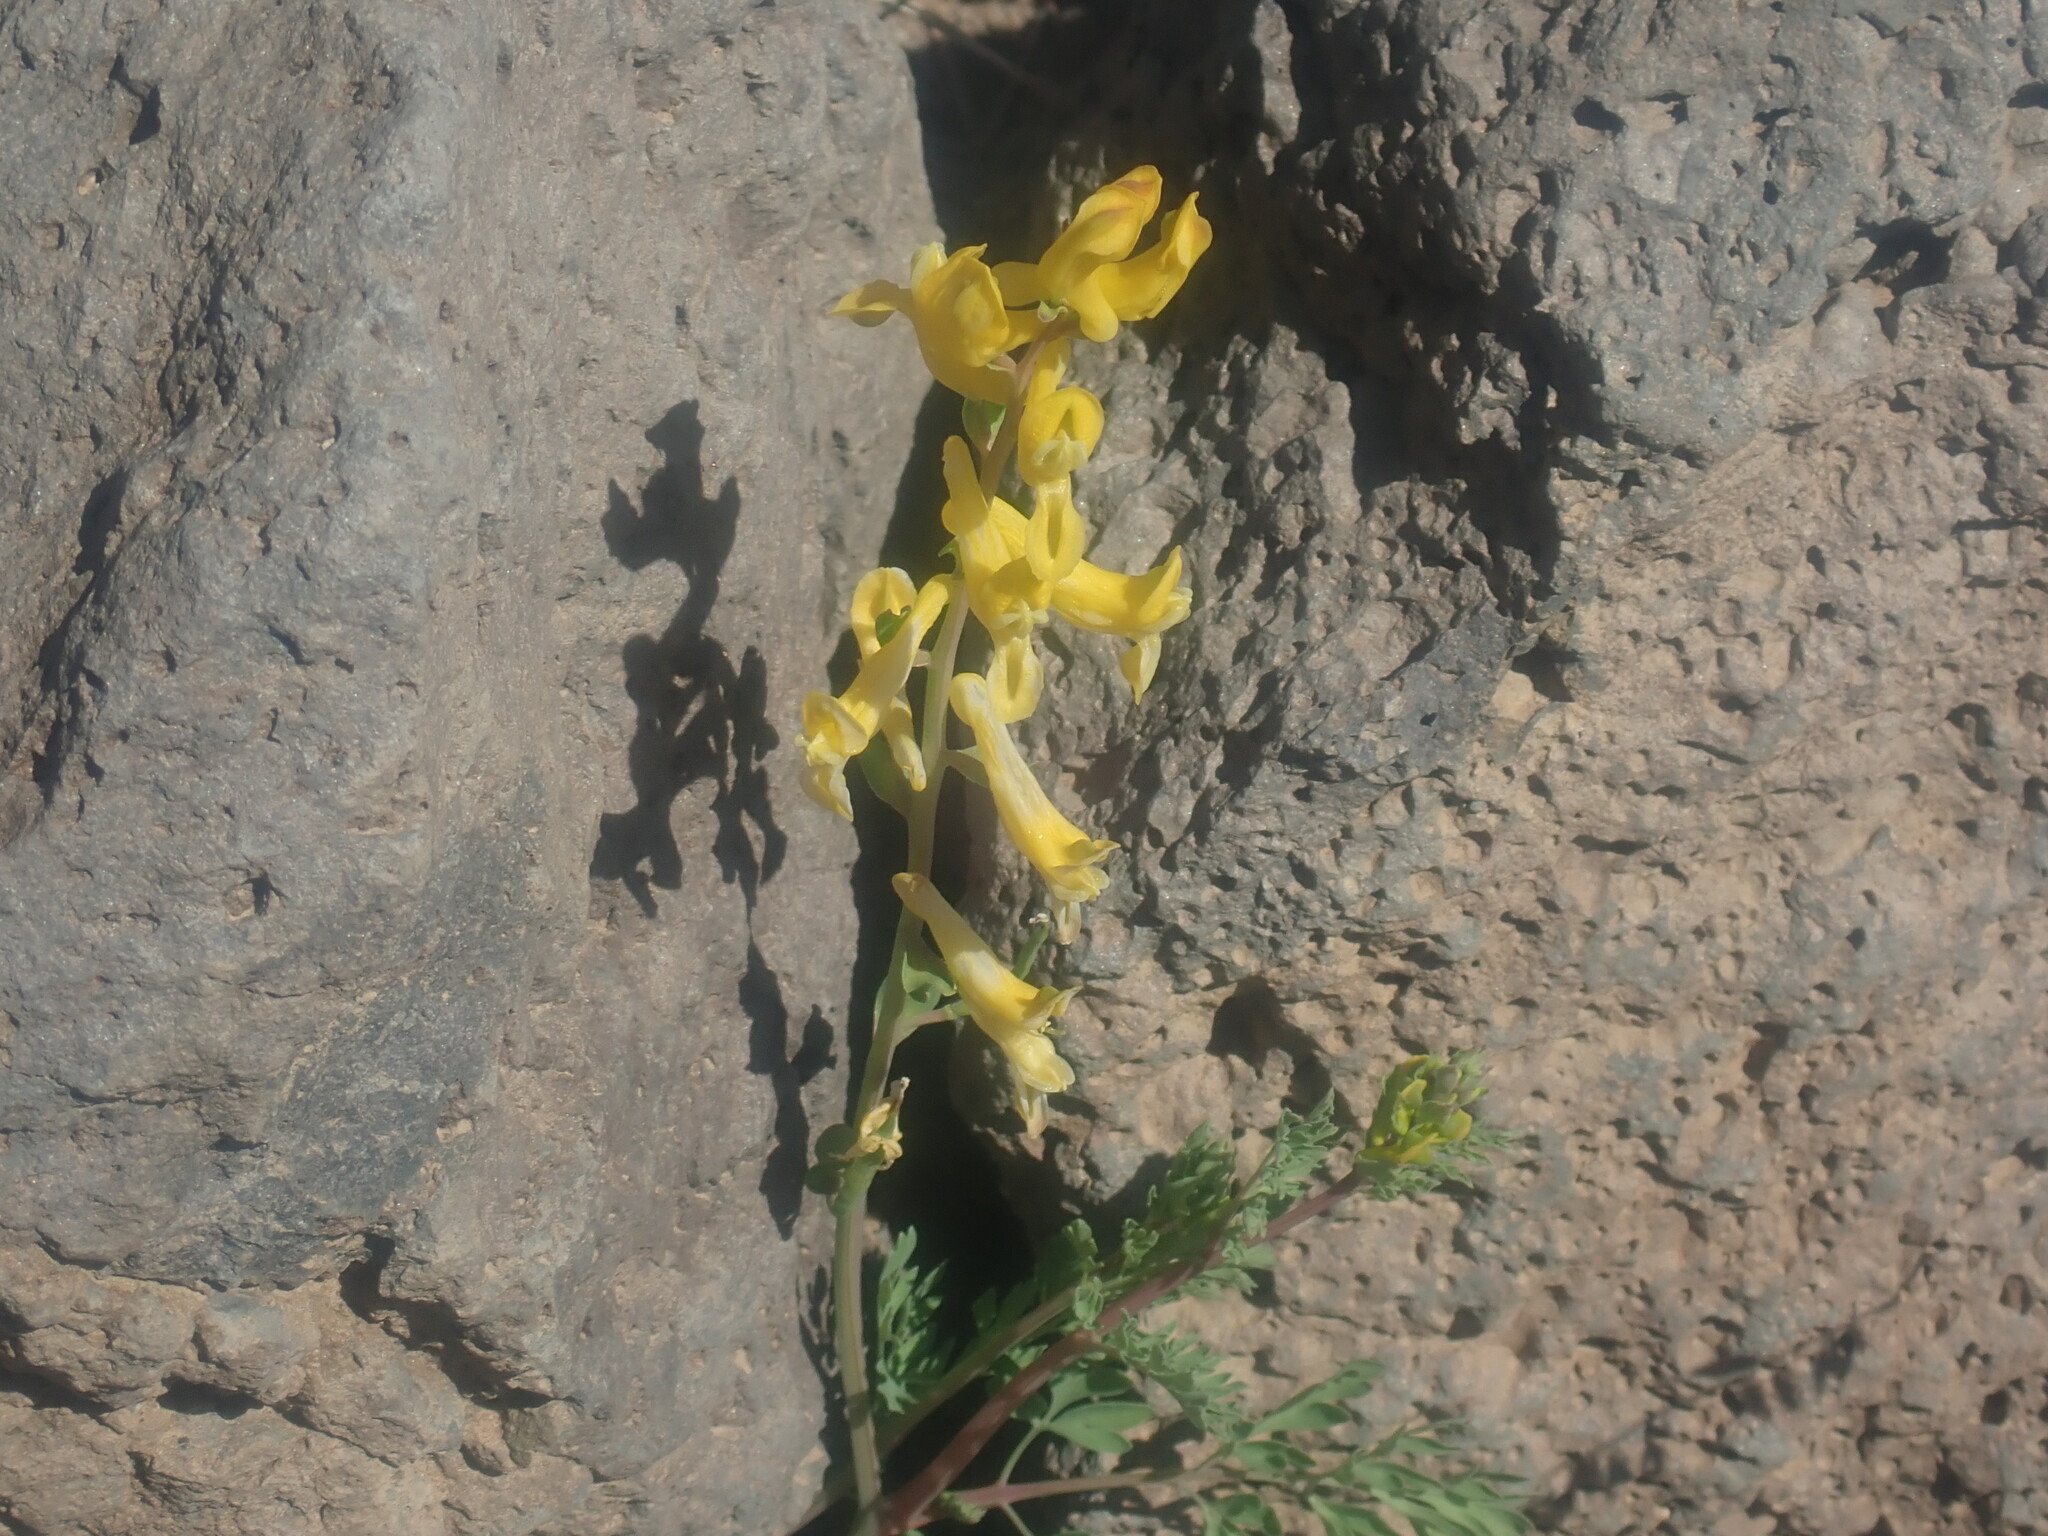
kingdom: Plantae
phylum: Tracheophyta
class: Magnoliopsida
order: Ranunculales
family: Papaveraceae
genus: Corydalis
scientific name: Corydalis aurea
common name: Golden corydalis
